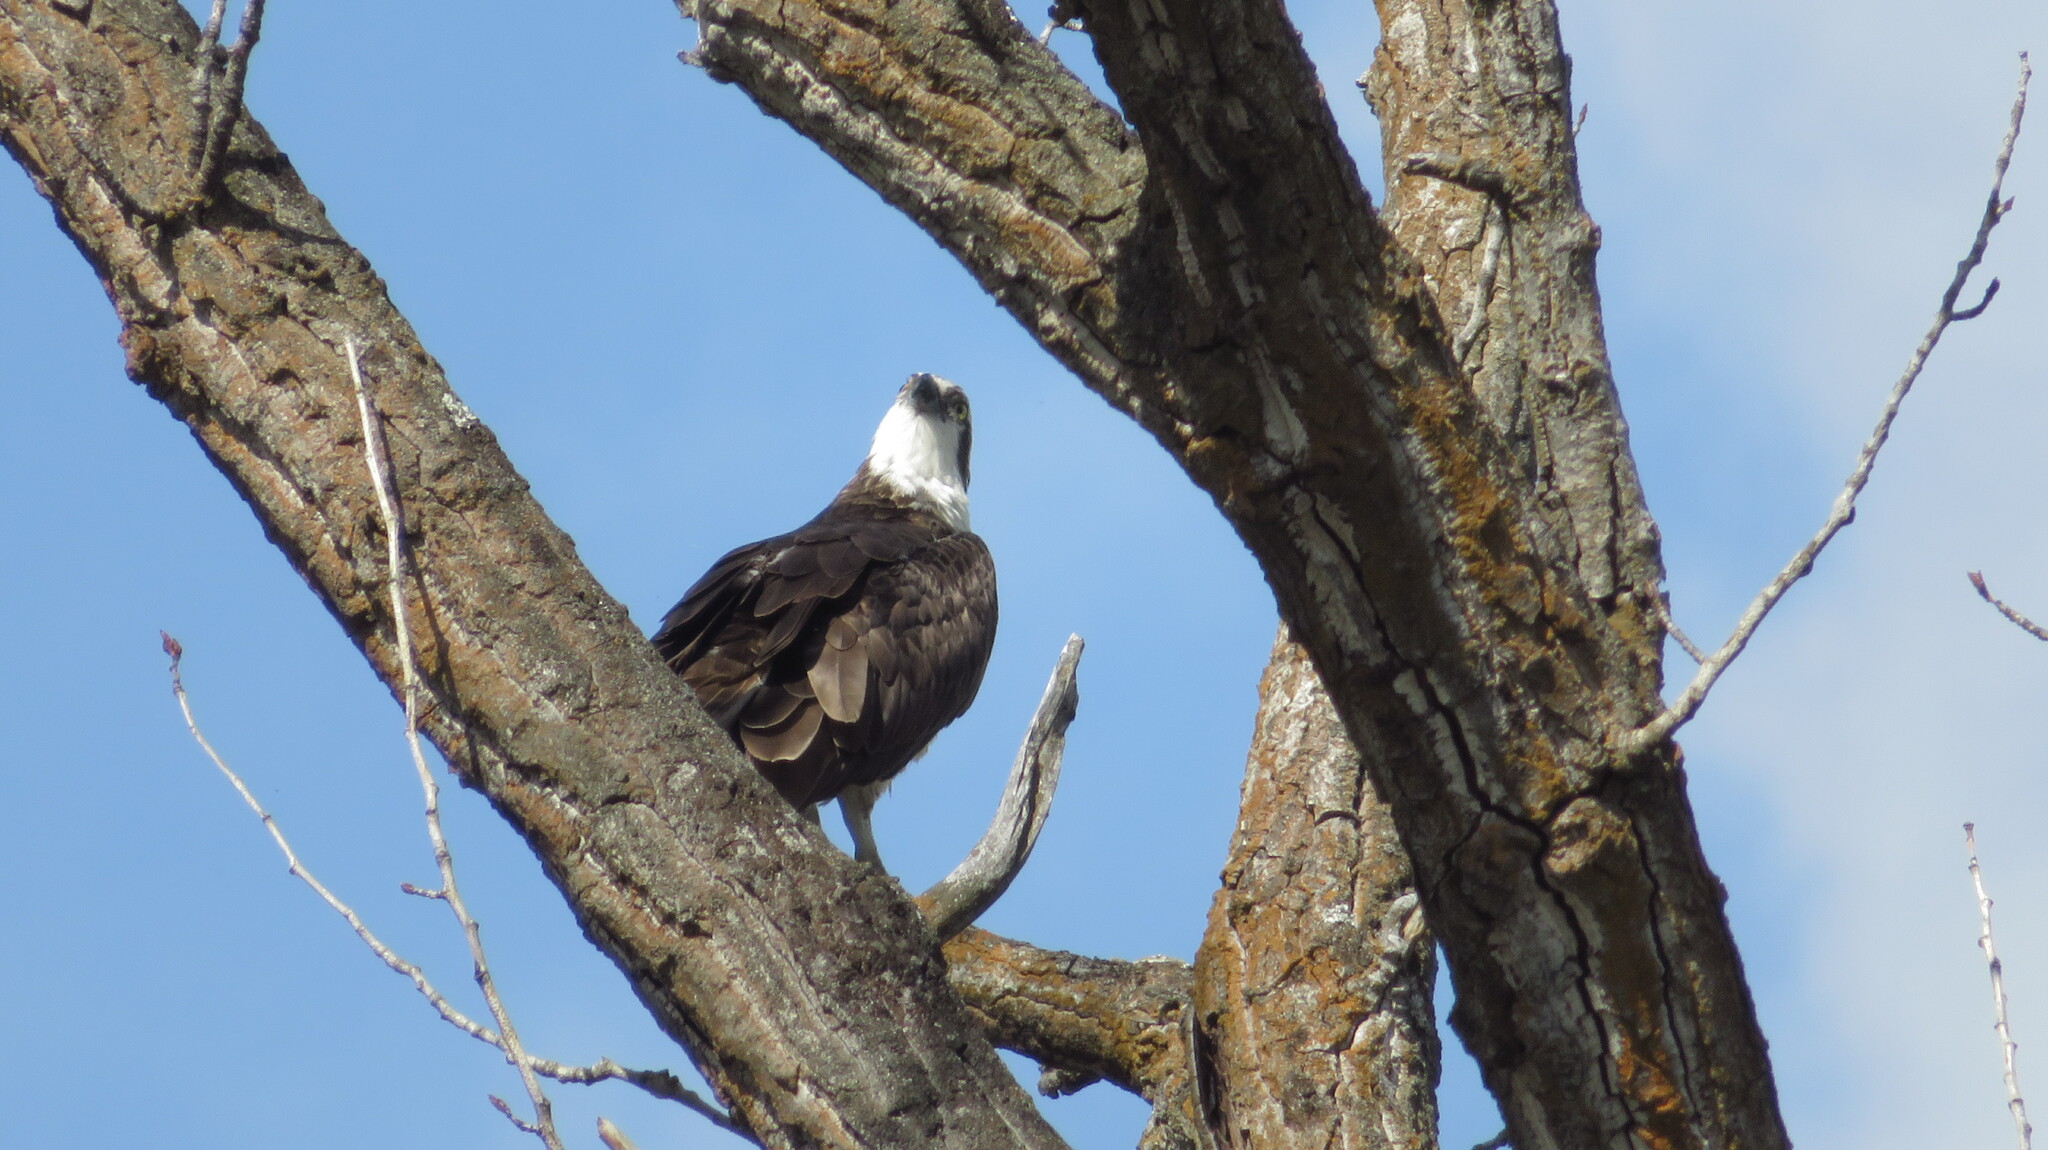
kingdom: Animalia
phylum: Chordata
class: Aves
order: Accipitriformes
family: Pandionidae
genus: Pandion
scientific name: Pandion haliaetus
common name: Osprey
